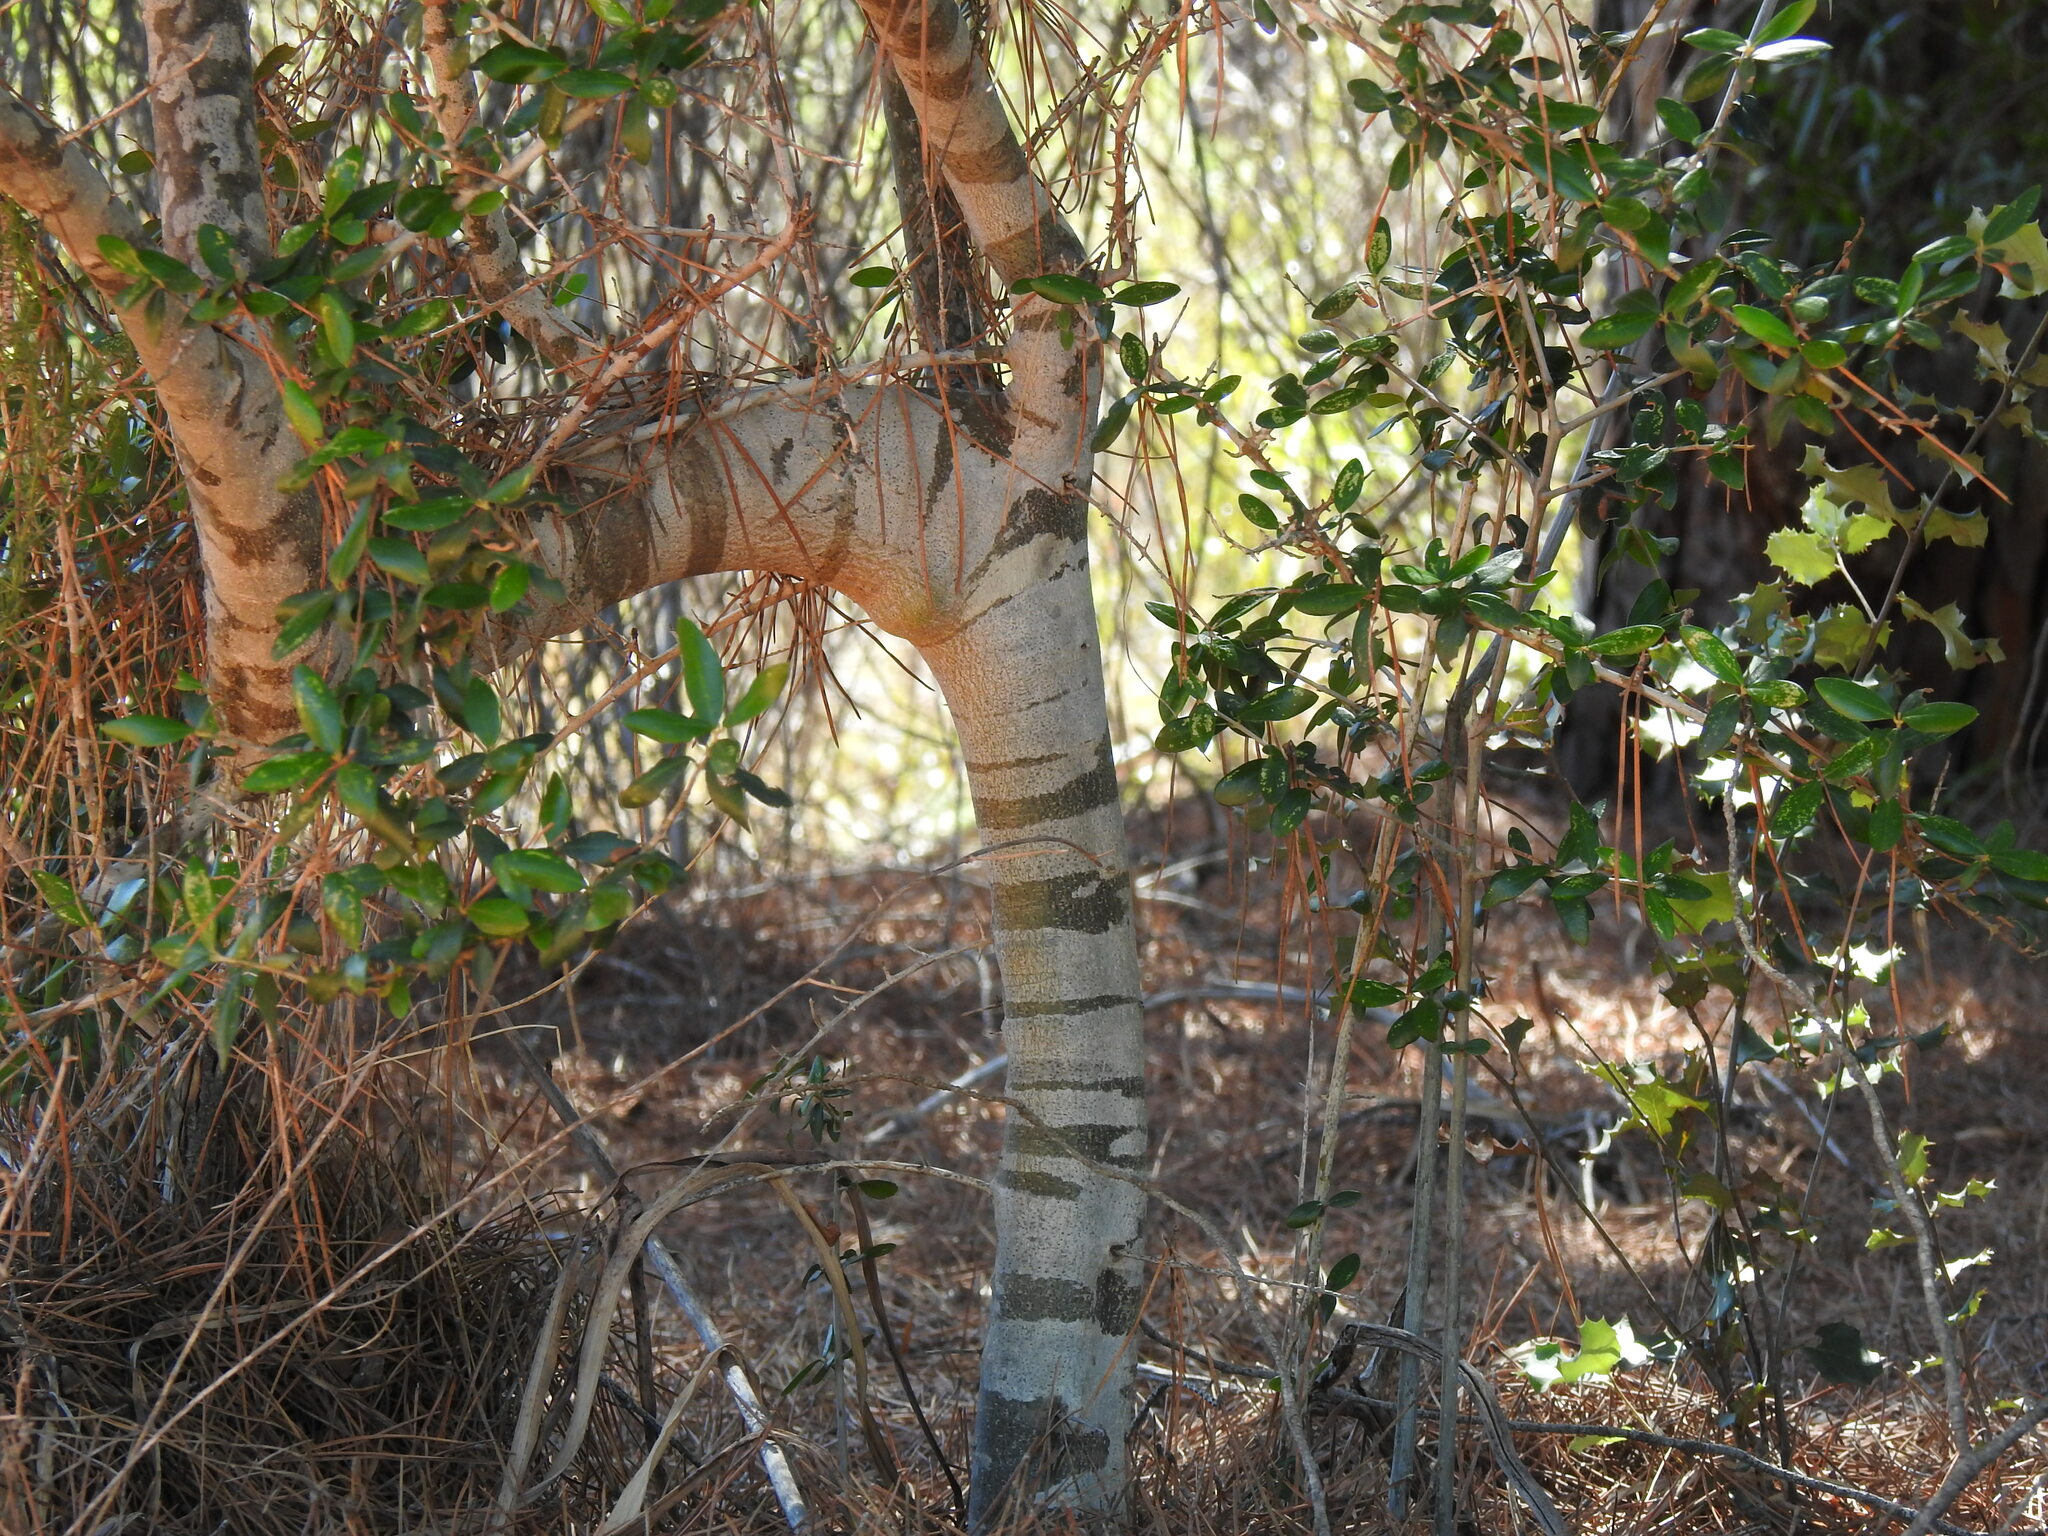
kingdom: Plantae
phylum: Tracheophyta
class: Magnoliopsida
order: Lamiales
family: Oleaceae
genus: Olea
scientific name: Olea europaea
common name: Olive
